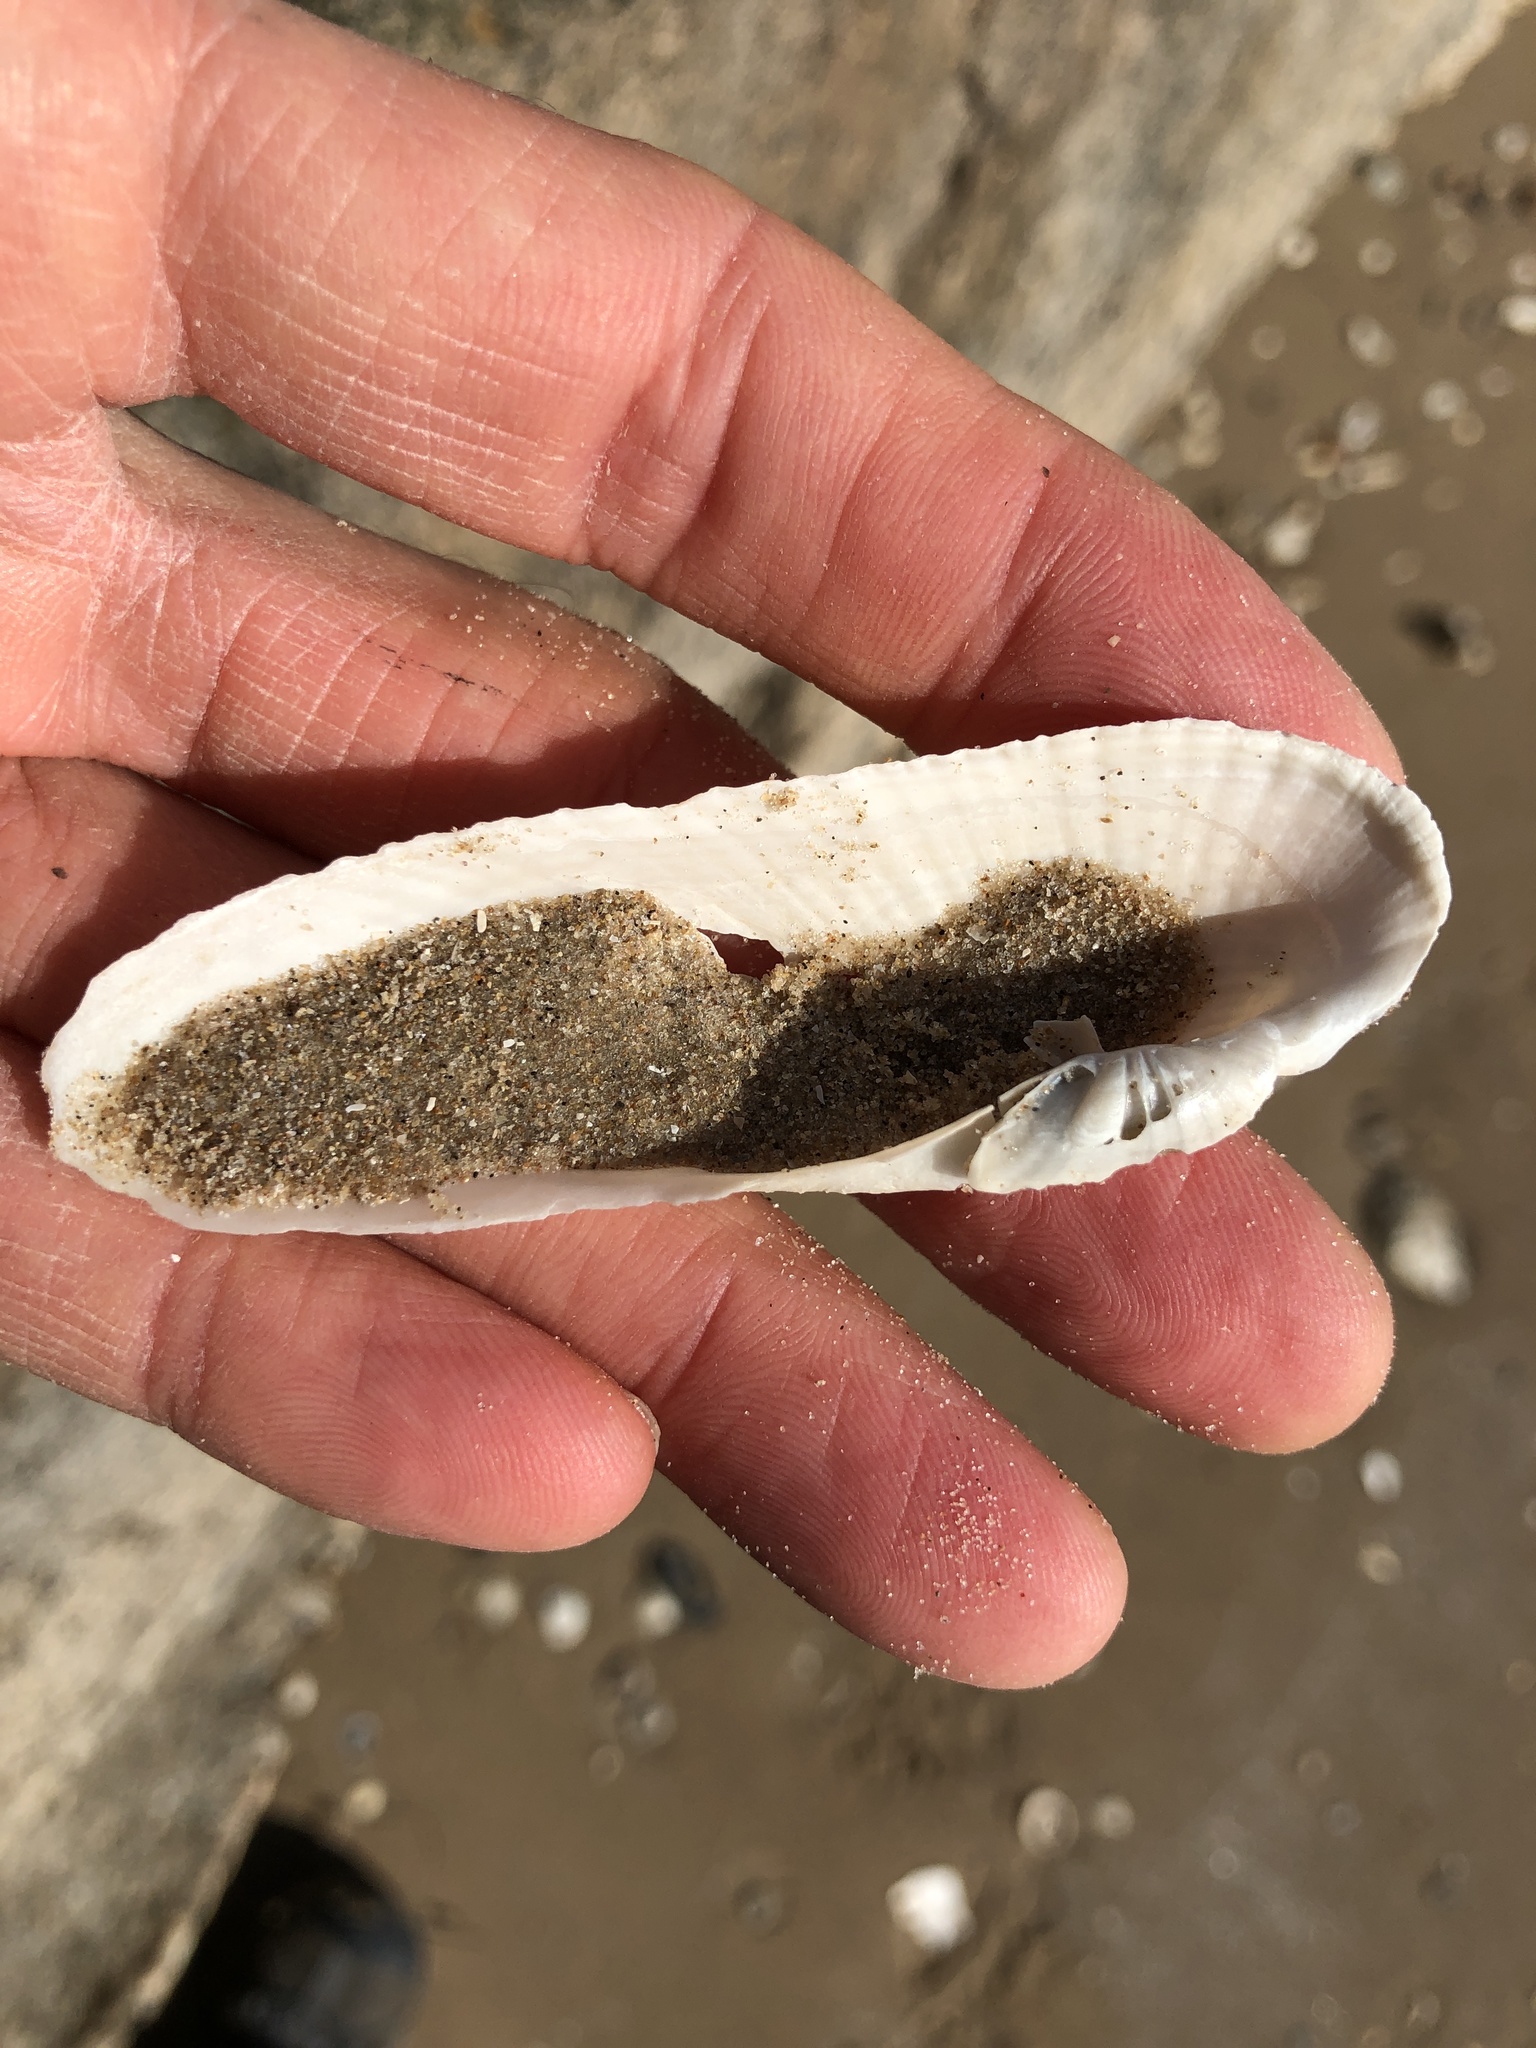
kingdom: Animalia
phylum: Mollusca
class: Bivalvia
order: Myida
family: Pholadidae
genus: Pholas
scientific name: Pholas campechiensis
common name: Campeche angel wing
